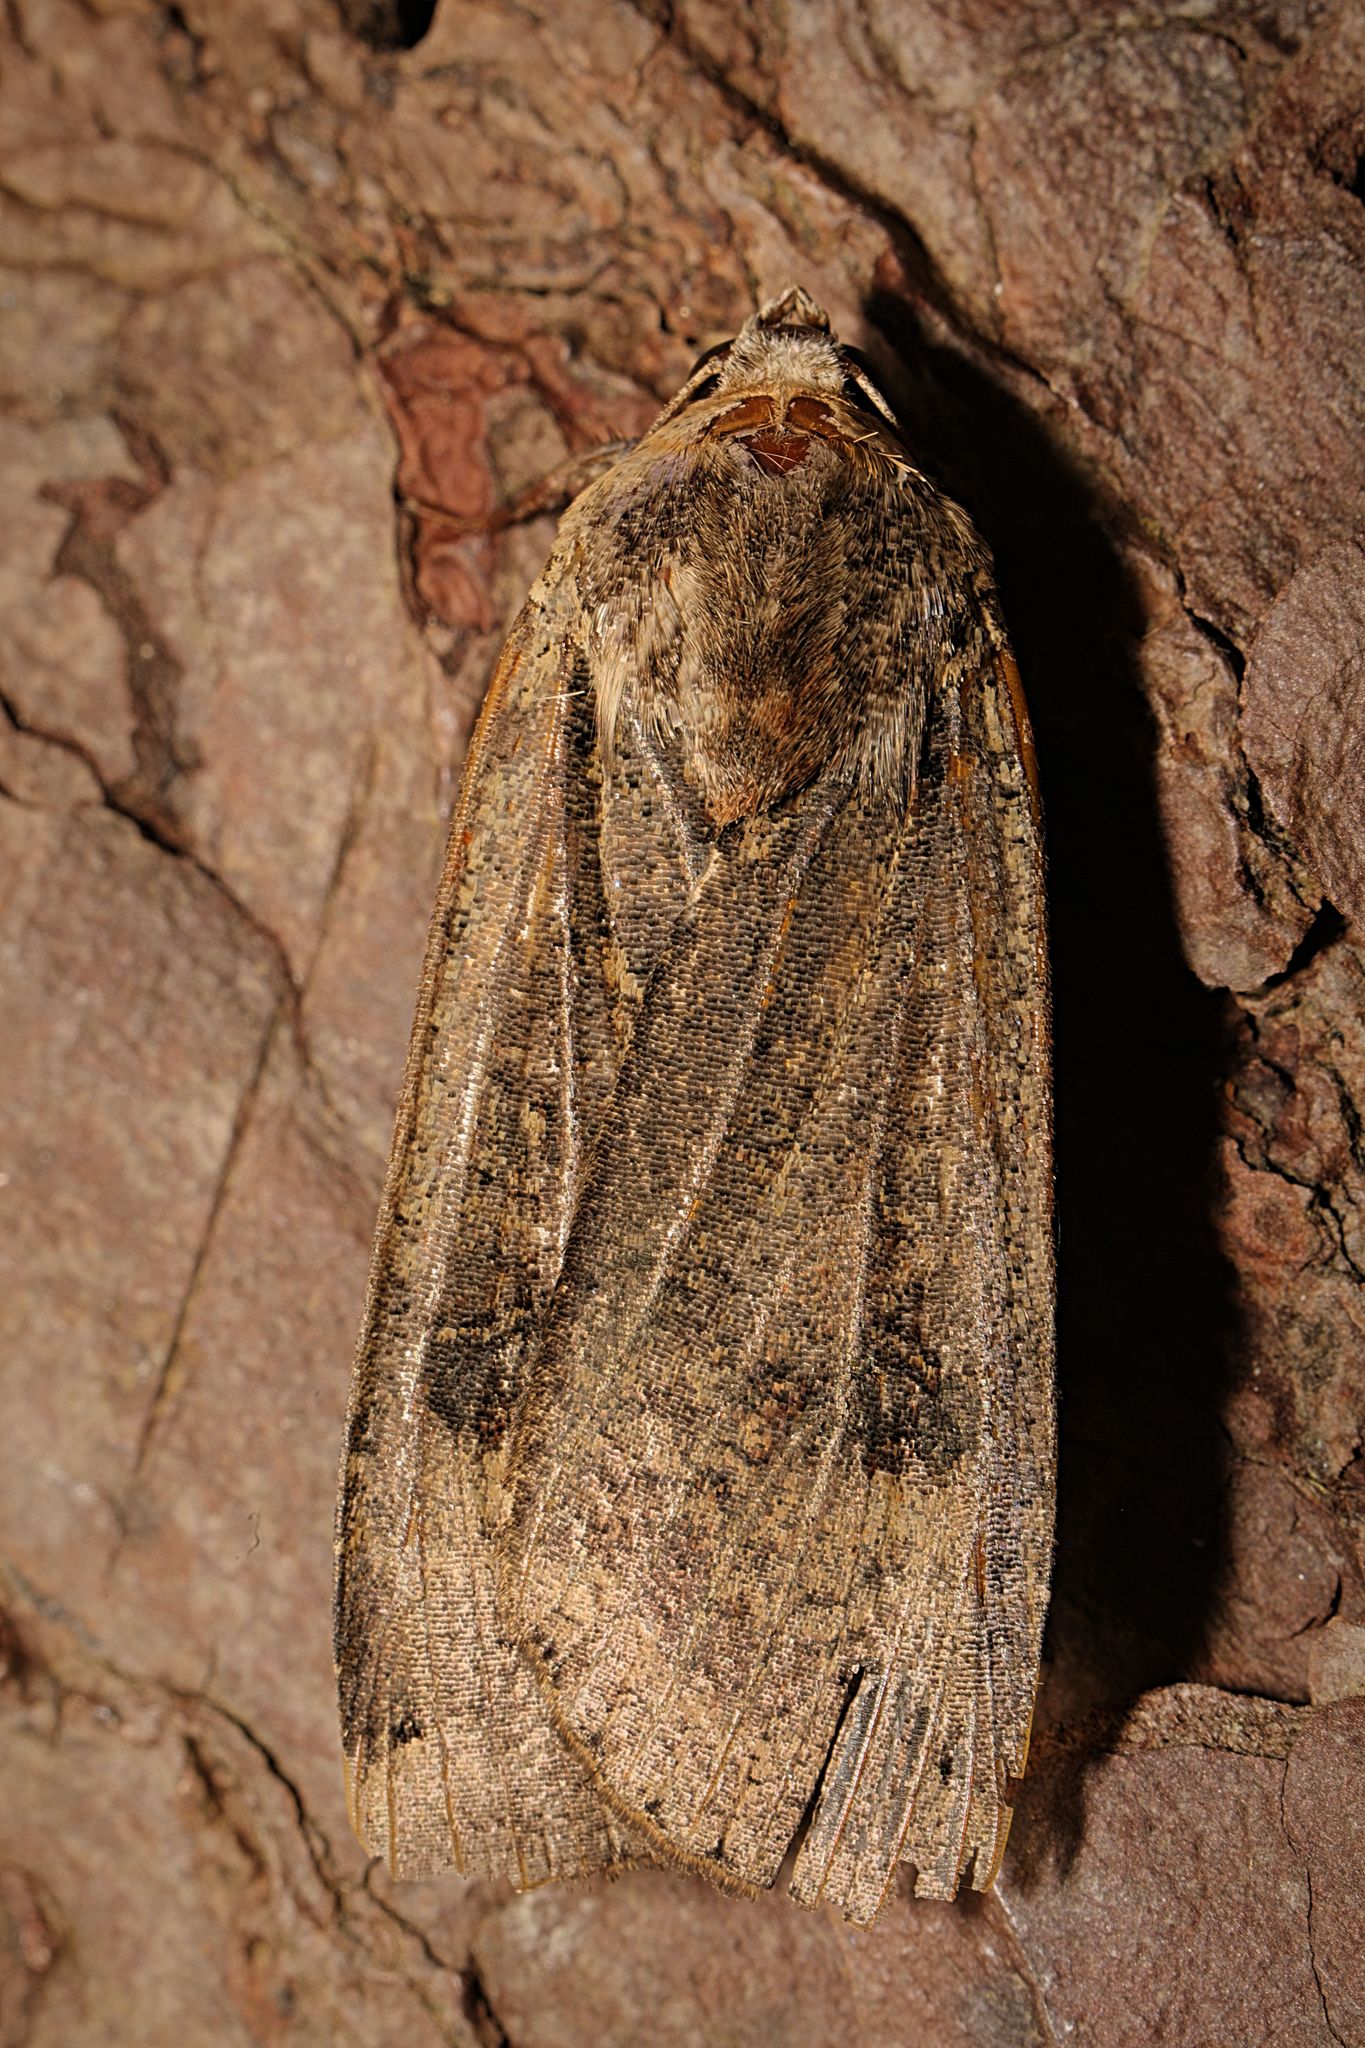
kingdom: Animalia
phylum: Arthropoda
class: Insecta
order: Lepidoptera
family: Noctuidae
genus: Noctua
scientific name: Noctua pronuba
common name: Large yellow underwing
